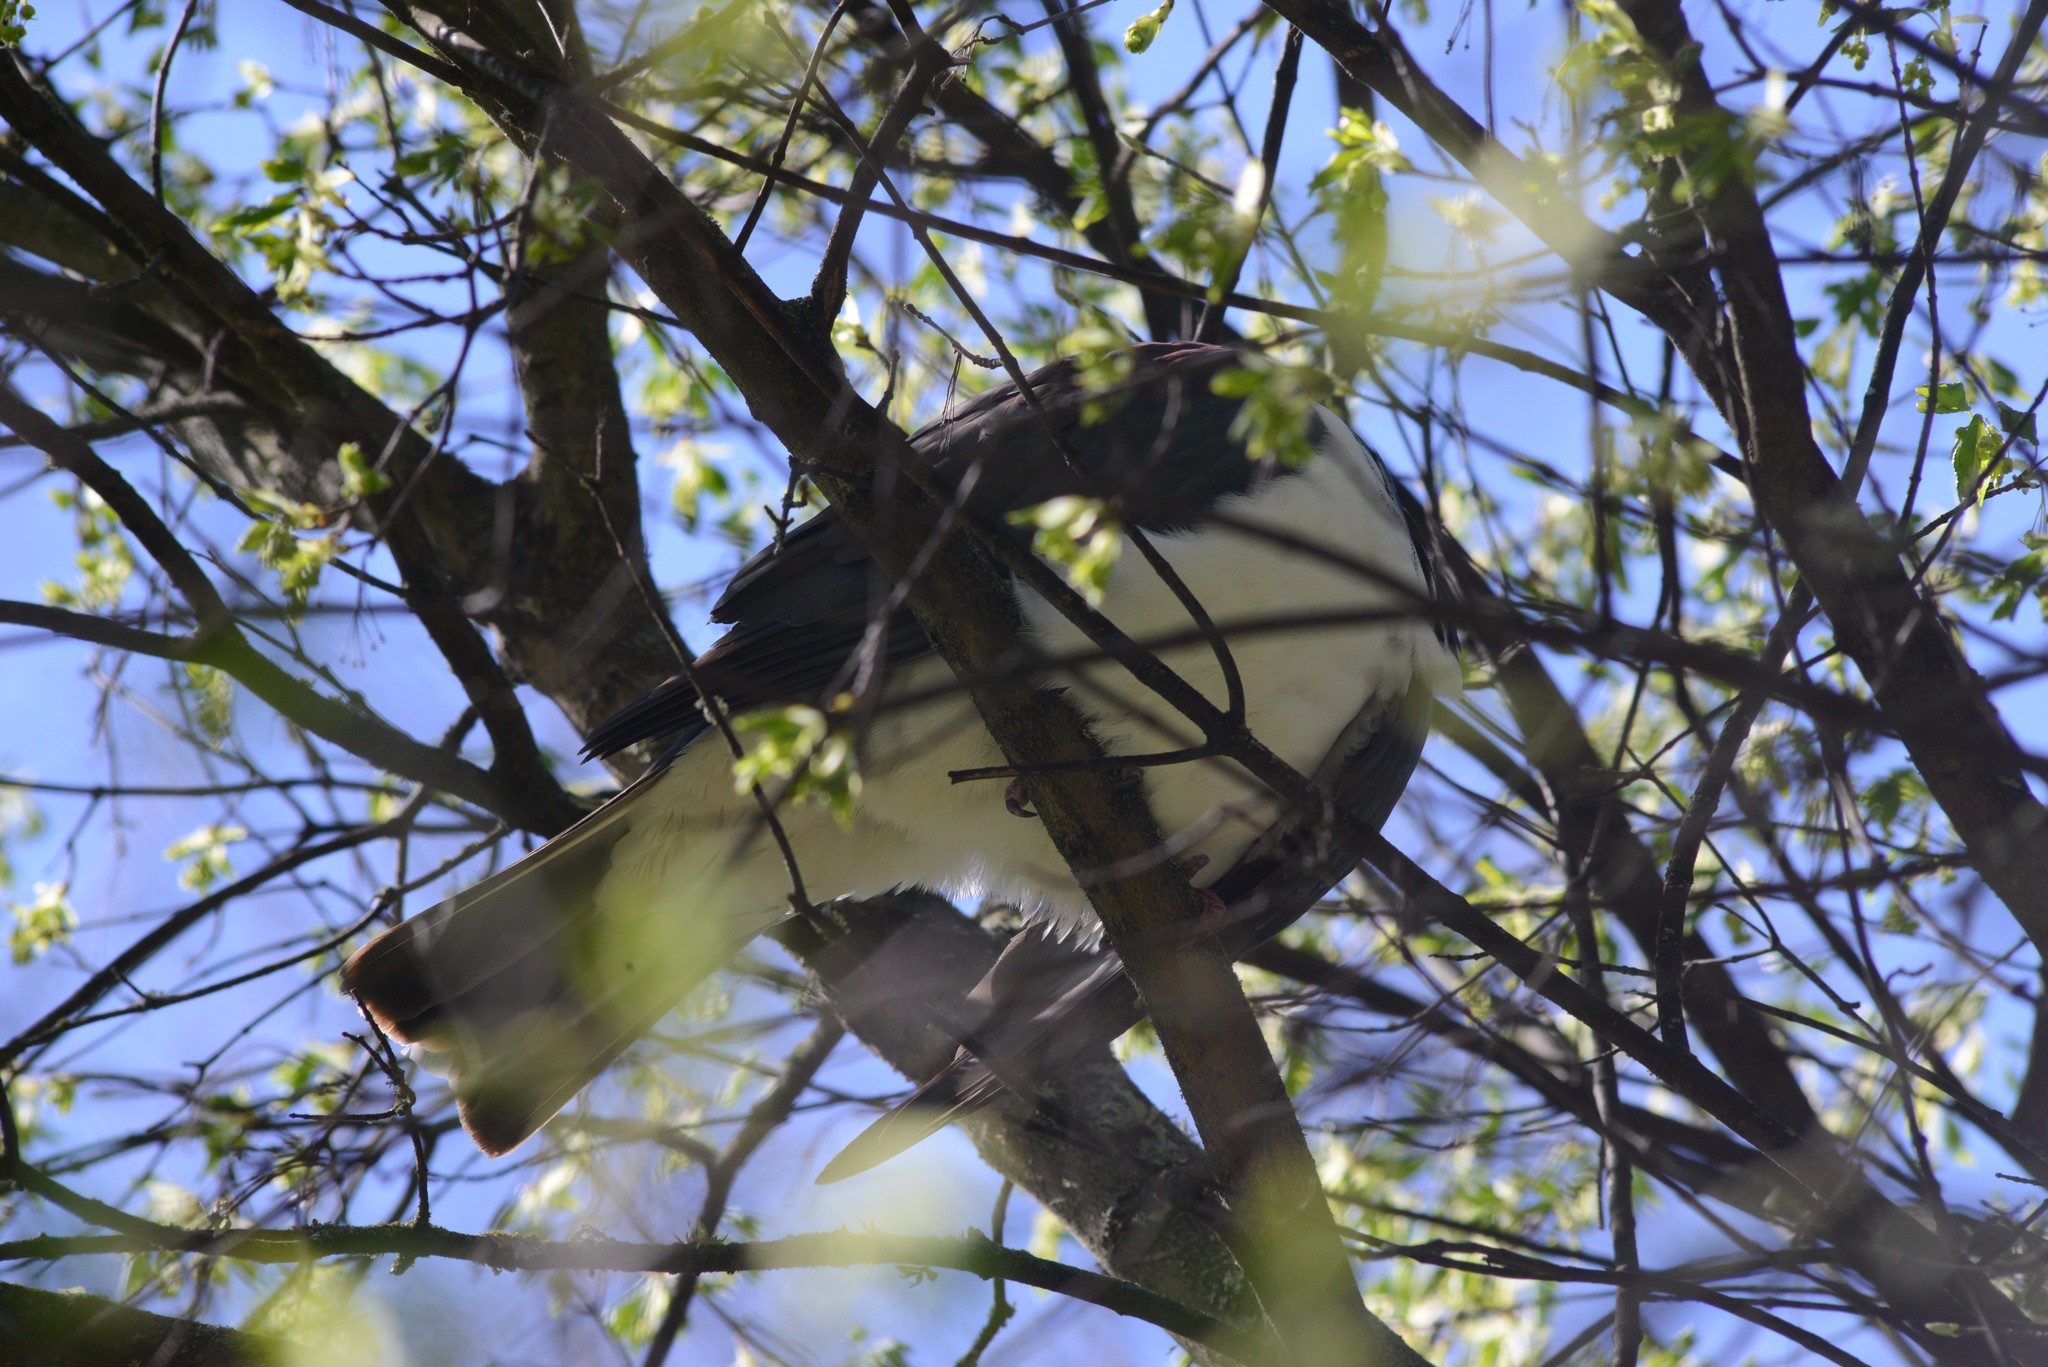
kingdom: Animalia
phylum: Chordata
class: Aves
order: Columbiformes
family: Columbidae
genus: Hemiphaga
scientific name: Hemiphaga novaeseelandiae
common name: New zealand pigeon
